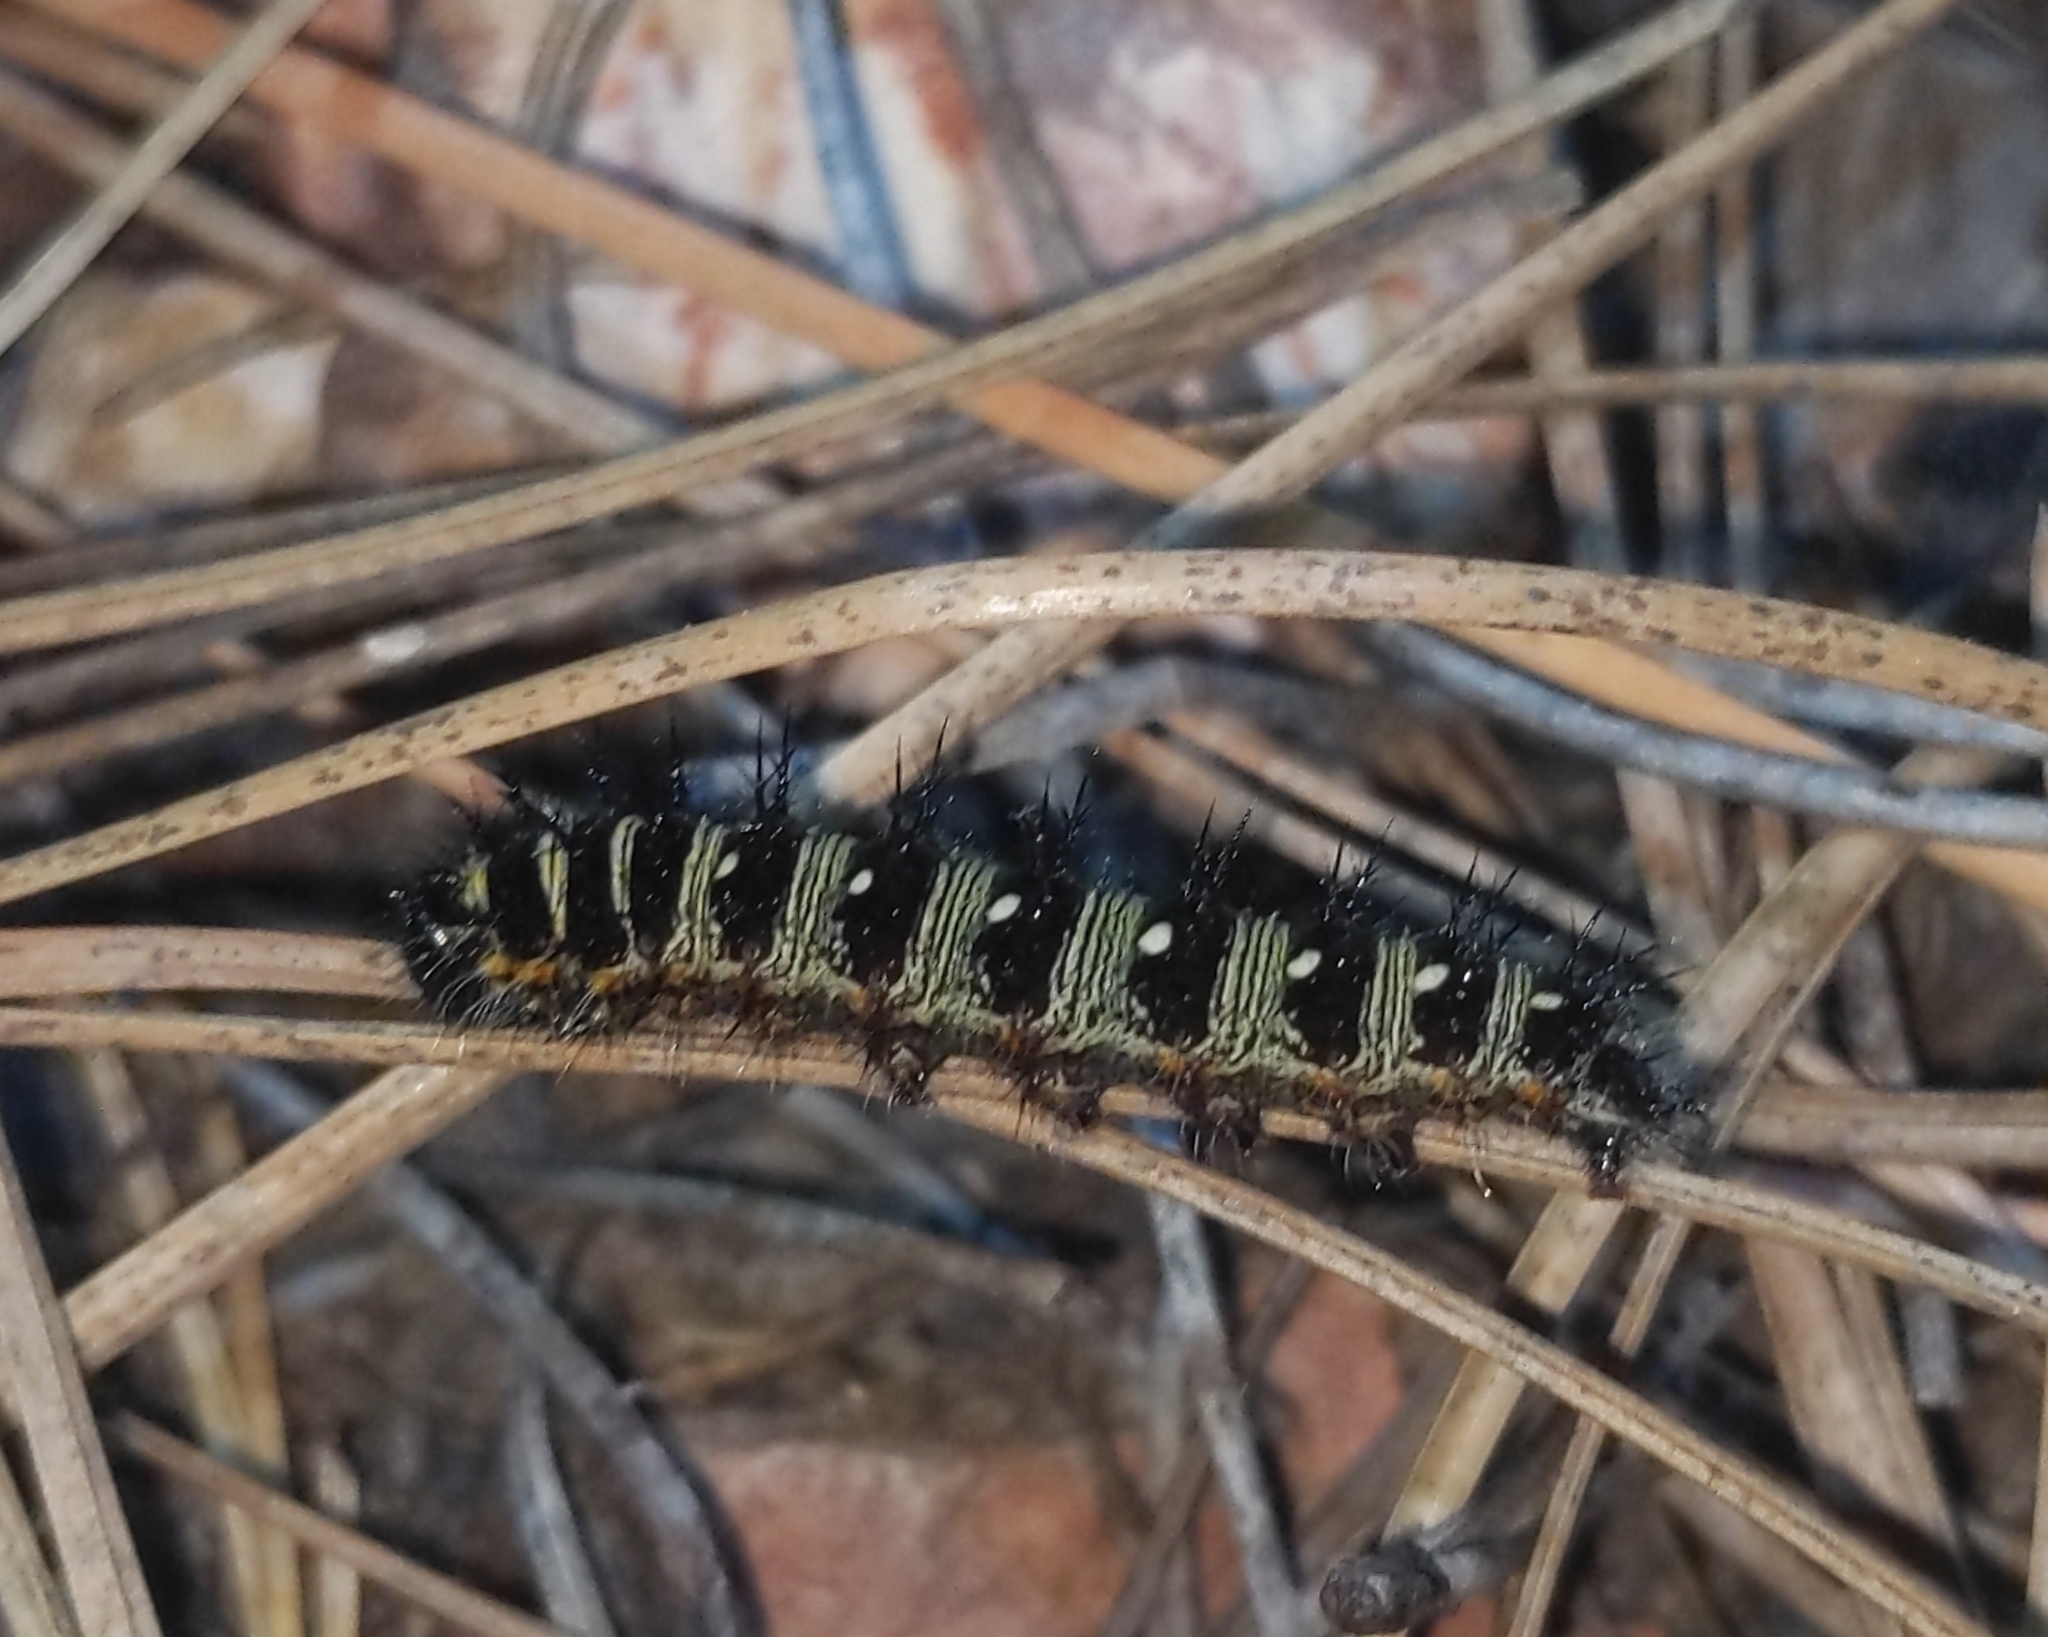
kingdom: Animalia
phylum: Arthropoda
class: Insecta
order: Lepidoptera
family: Nymphalidae
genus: Vanessa
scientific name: Vanessa virginiensis
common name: American lady
